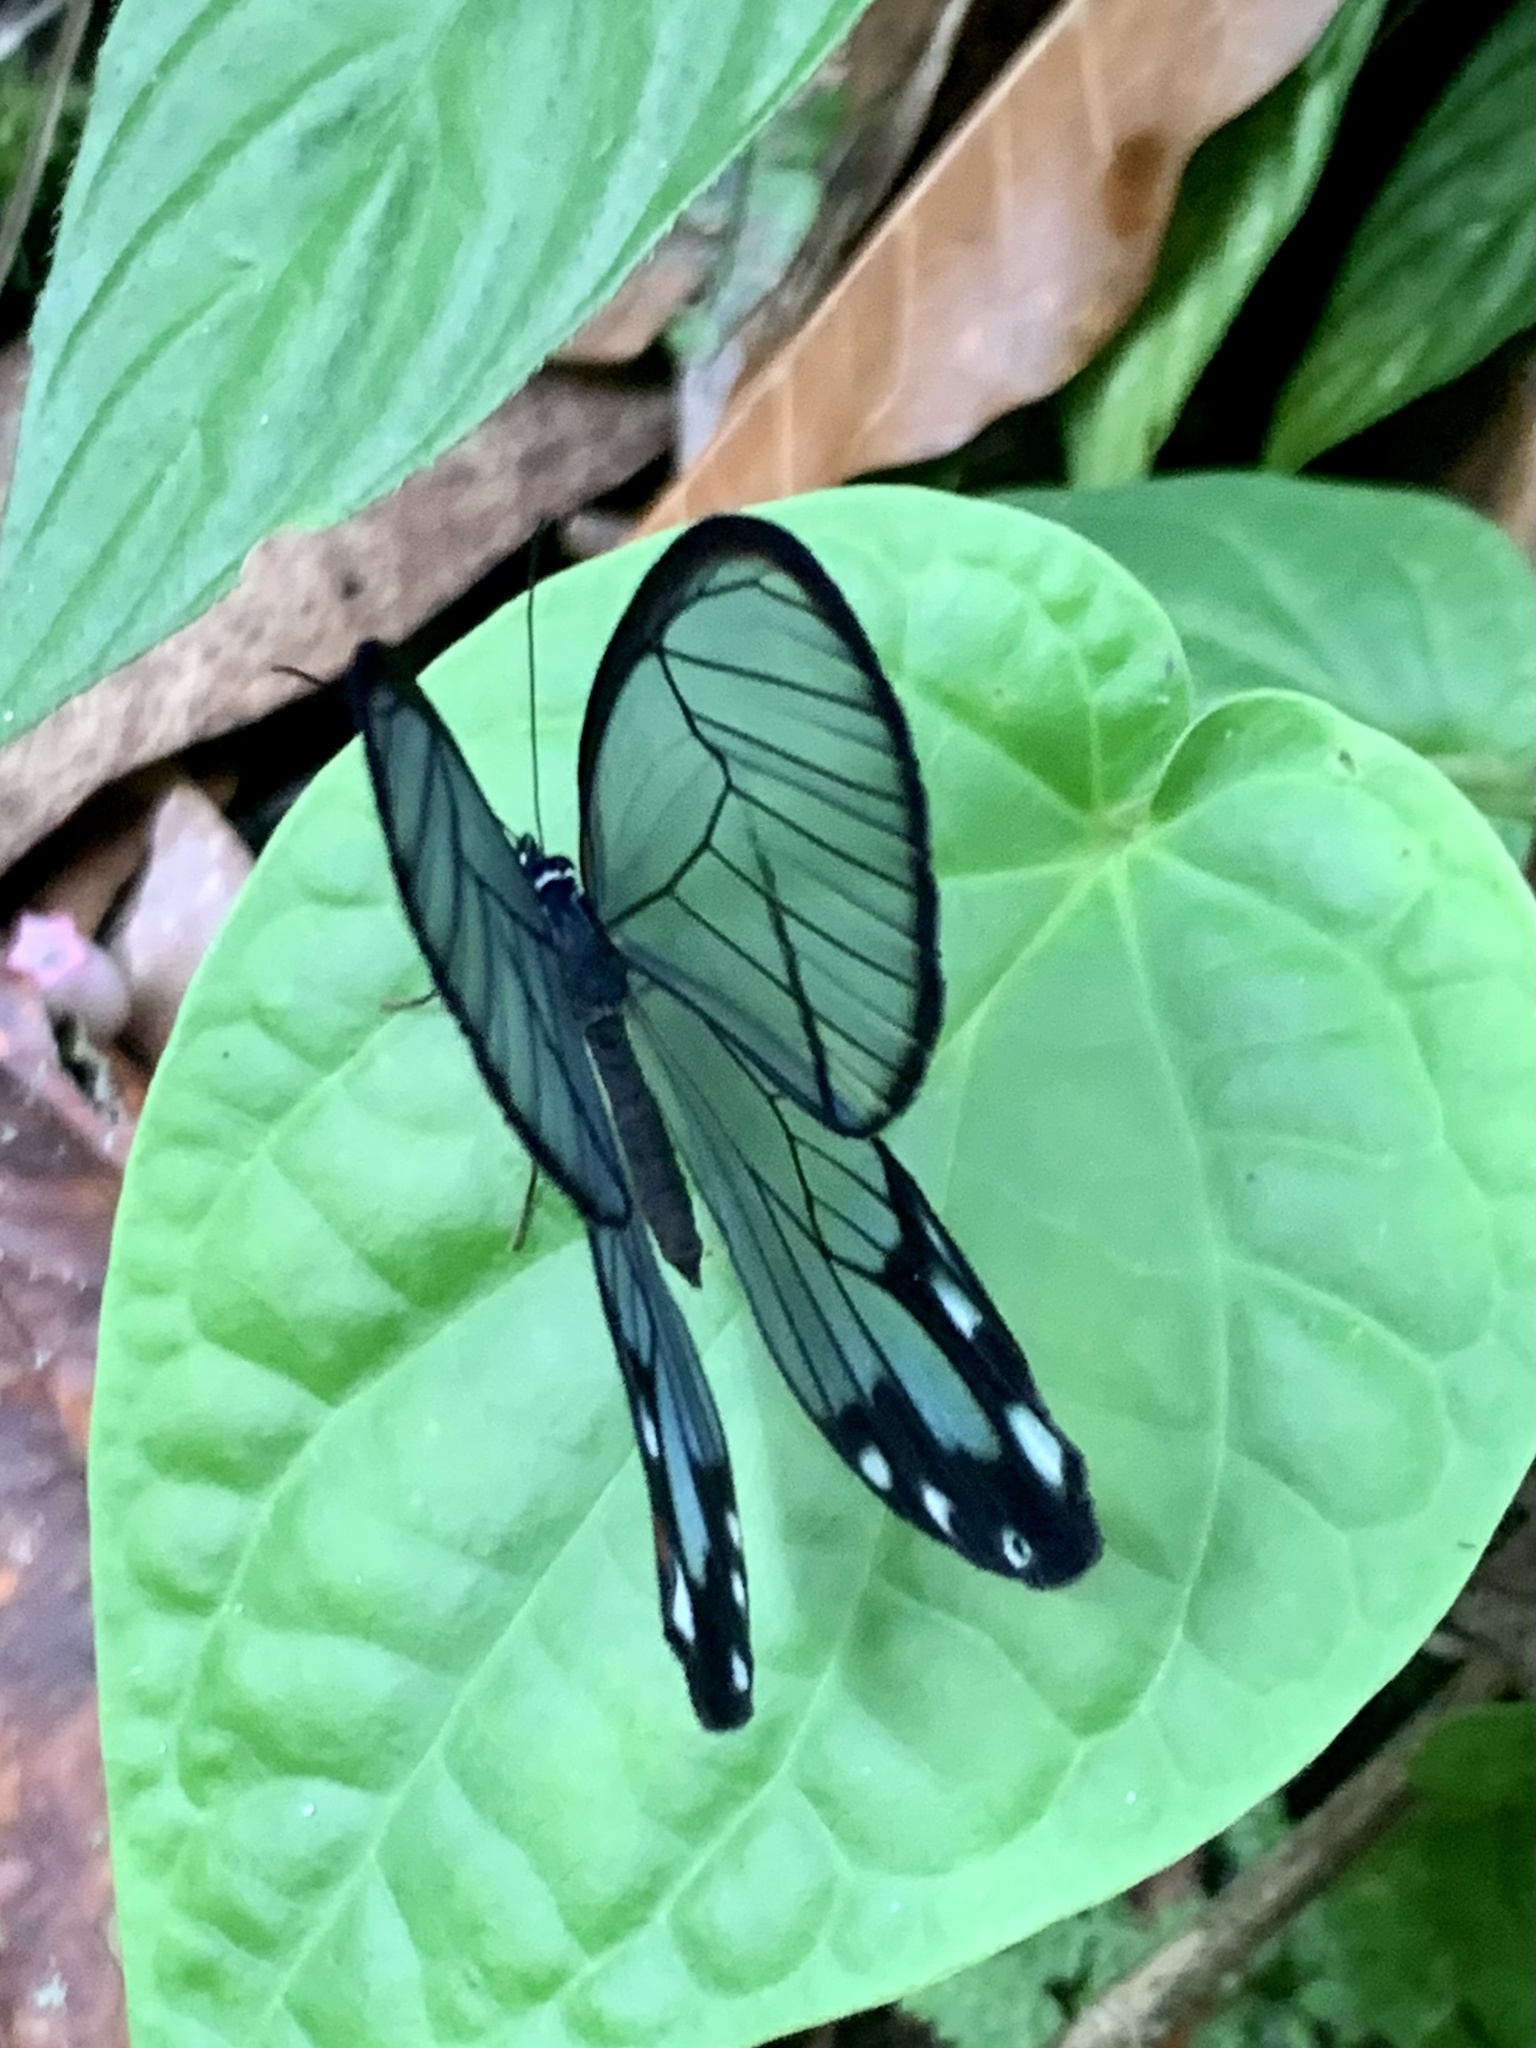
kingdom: Animalia
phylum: Arthropoda
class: Insecta
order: Lepidoptera
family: Nymphalidae
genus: Pseudohaetera
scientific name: Pseudohaetera hypaesia
